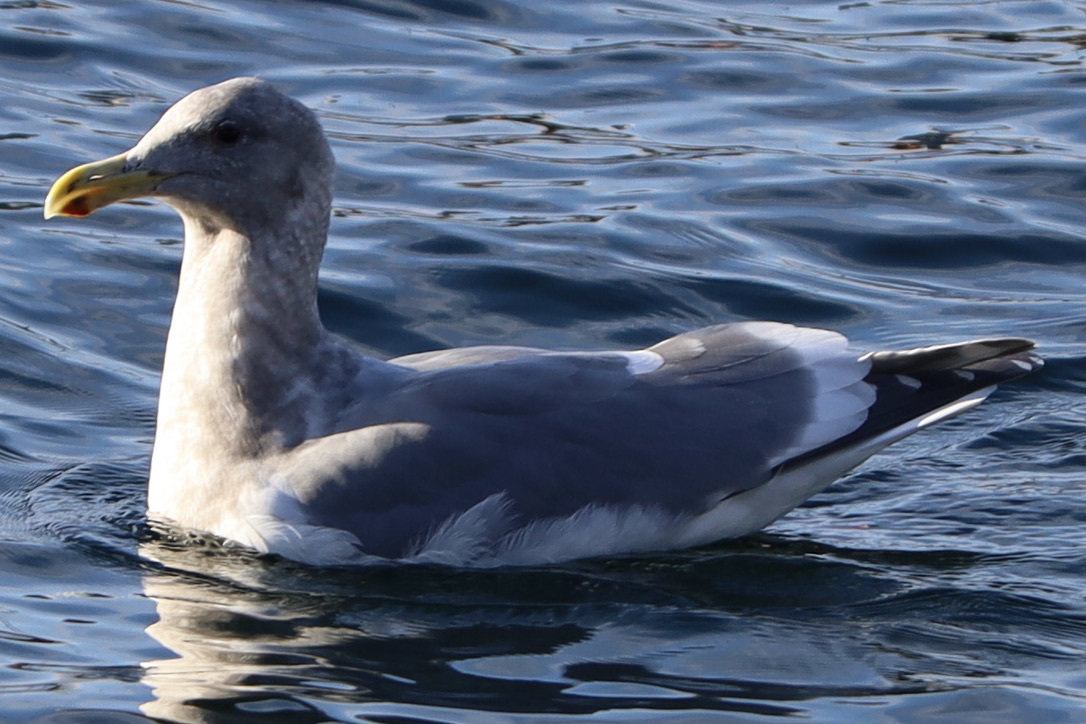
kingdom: Animalia
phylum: Chordata
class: Aves
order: Charadriiformes
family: Laridae
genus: Larus
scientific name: Larus
